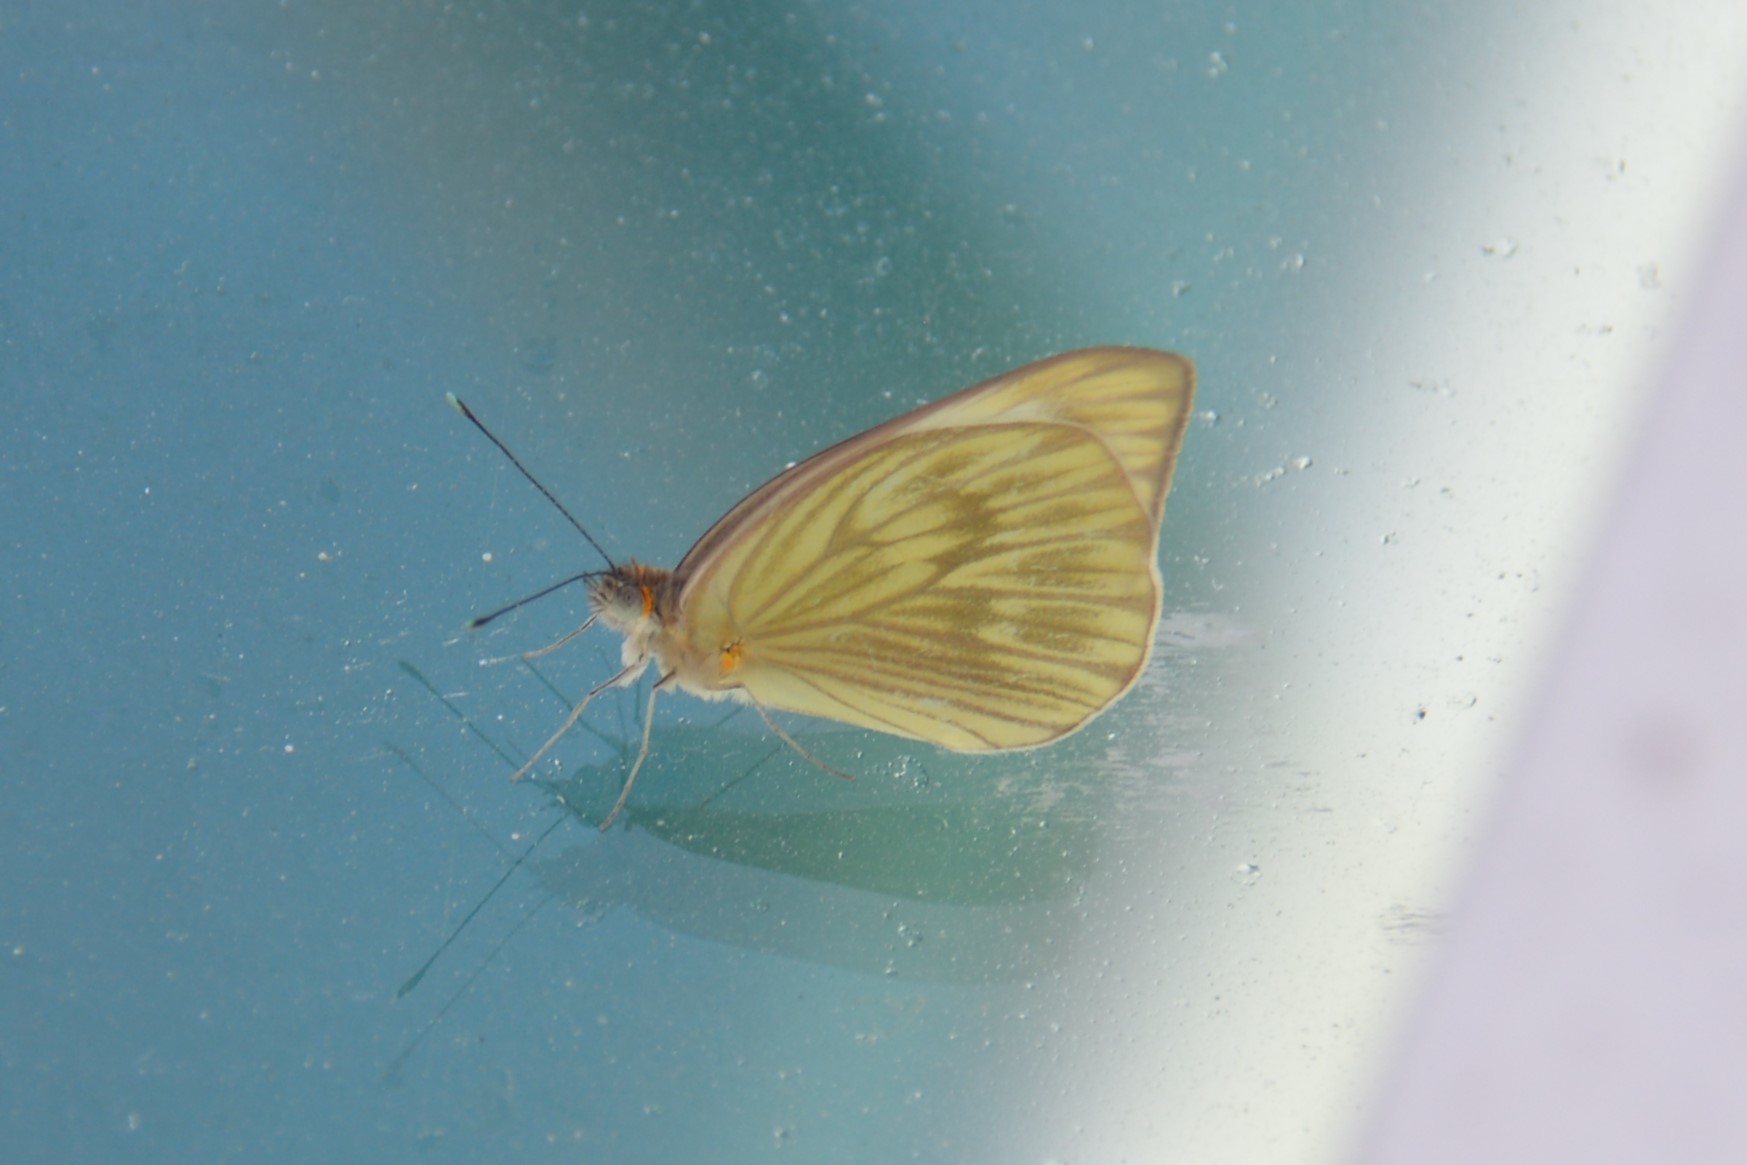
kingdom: Animalia
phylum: Arthropoda
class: Insecta
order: Lepidoptera
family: Pieridae
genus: Ascia
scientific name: Ascia monuste
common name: Great southern white
